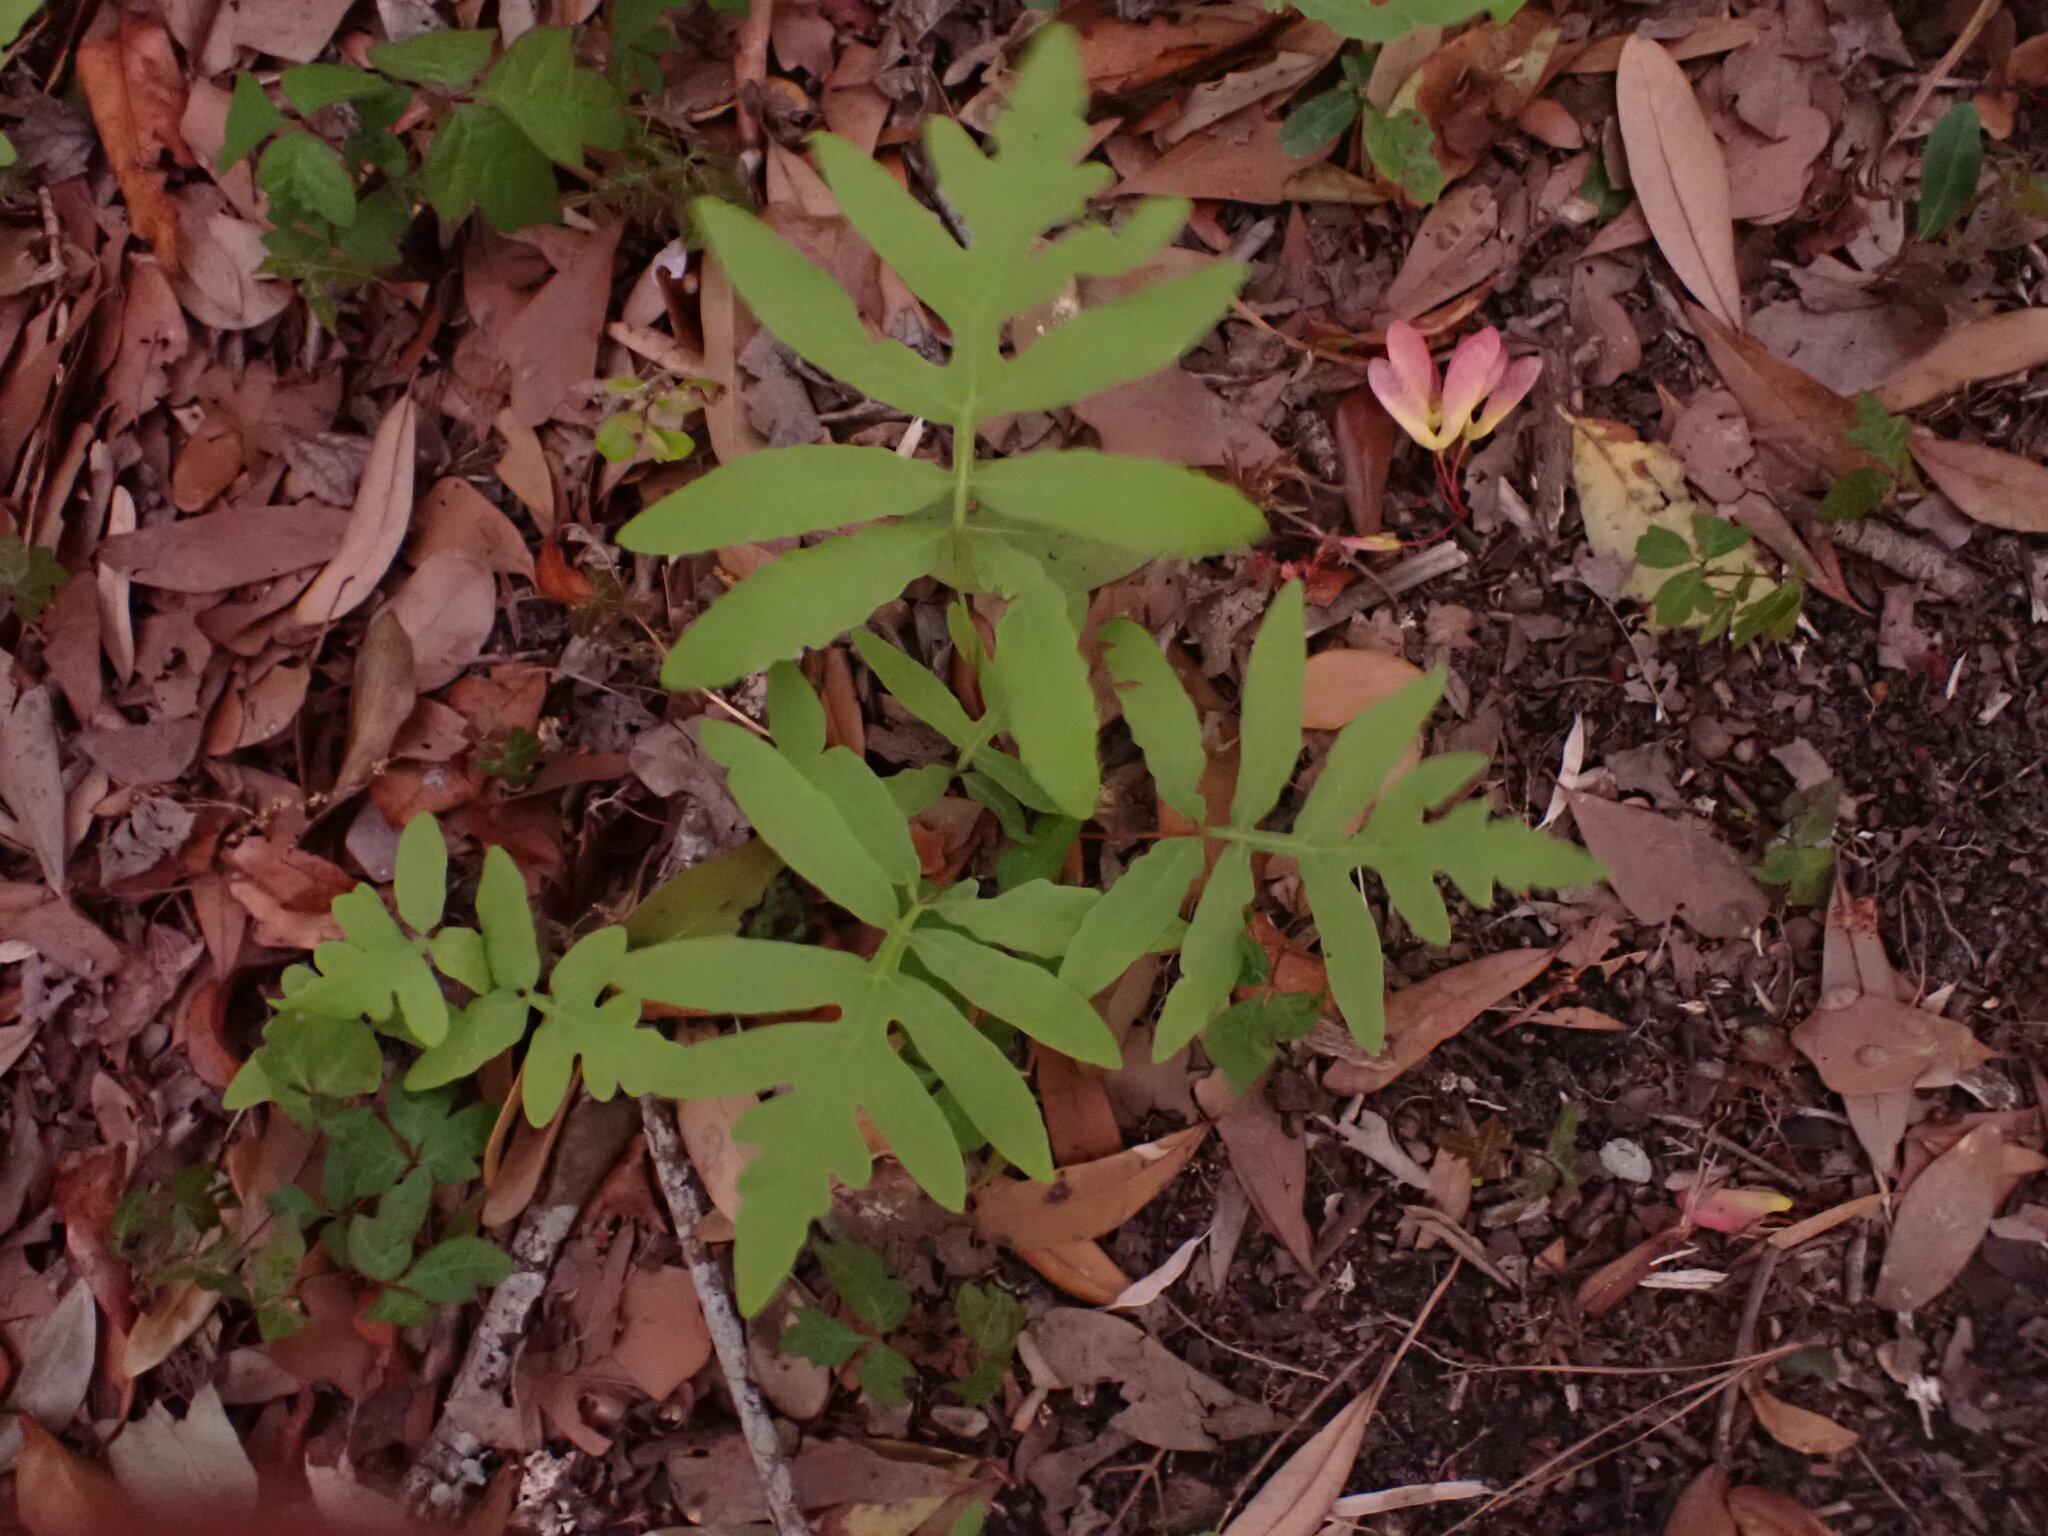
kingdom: Plantae
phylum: Tracheophyta
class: Polypodiopsida
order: Polypodiales
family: Onocleaceae
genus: Onoclea
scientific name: Onoclea sensibilis
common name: Sensitive fern
